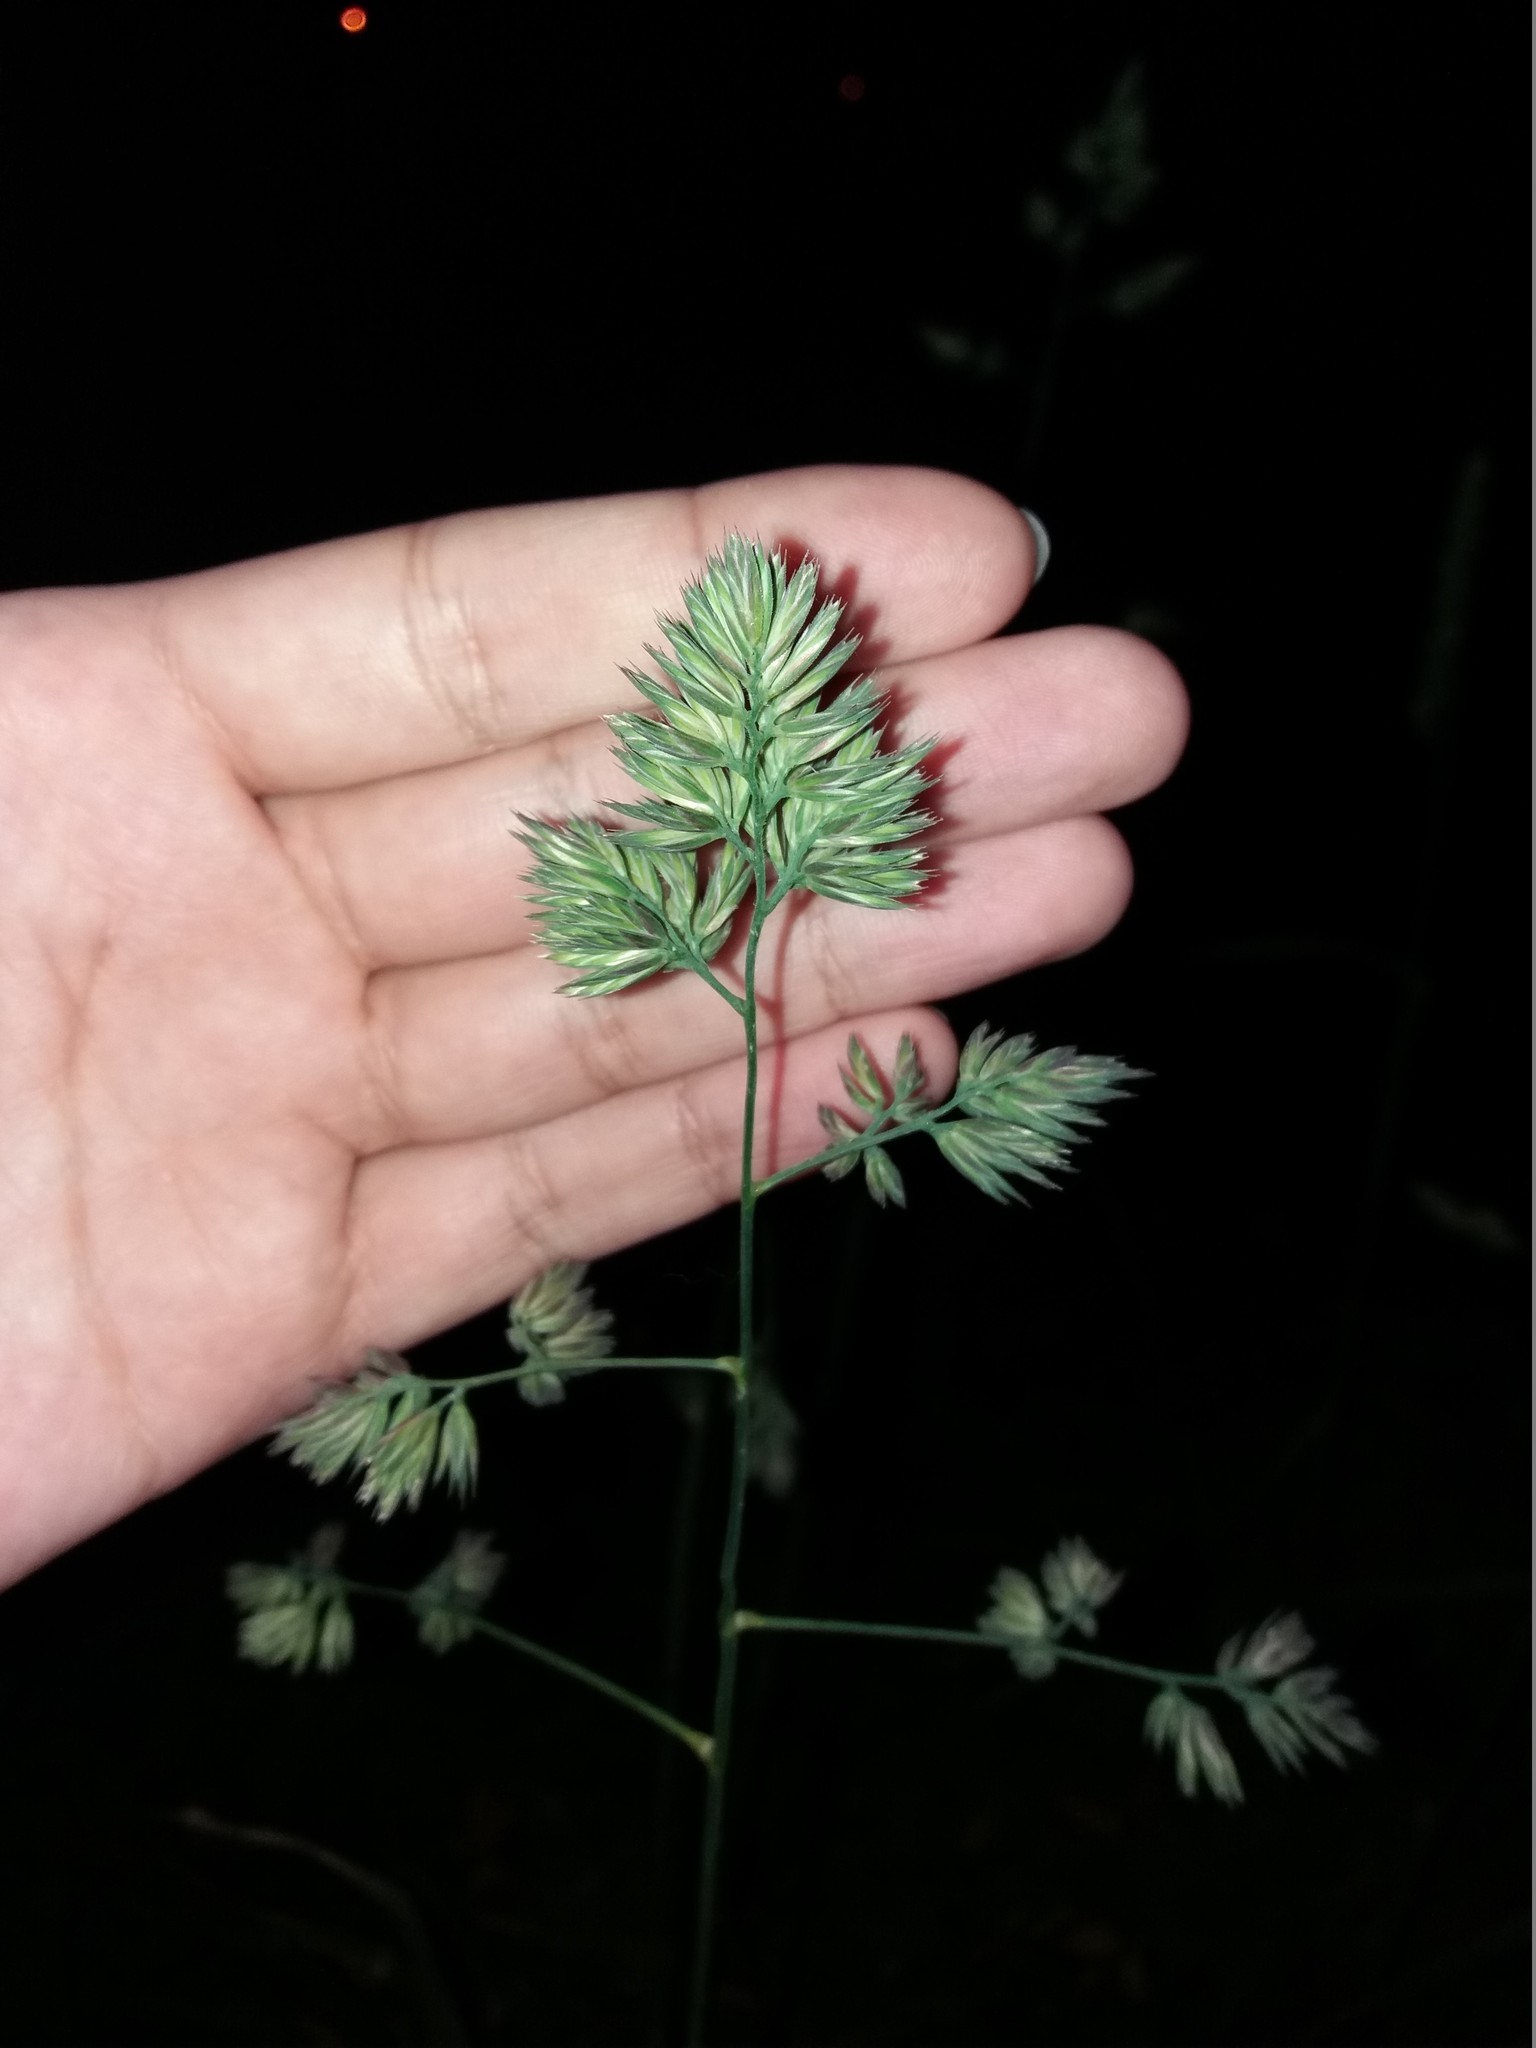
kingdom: Plantae
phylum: Tracheophyta
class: Liliopsida
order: Poales
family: Poaceae
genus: Dactylis
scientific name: Dactylis glomerata
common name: Orchardgrass
